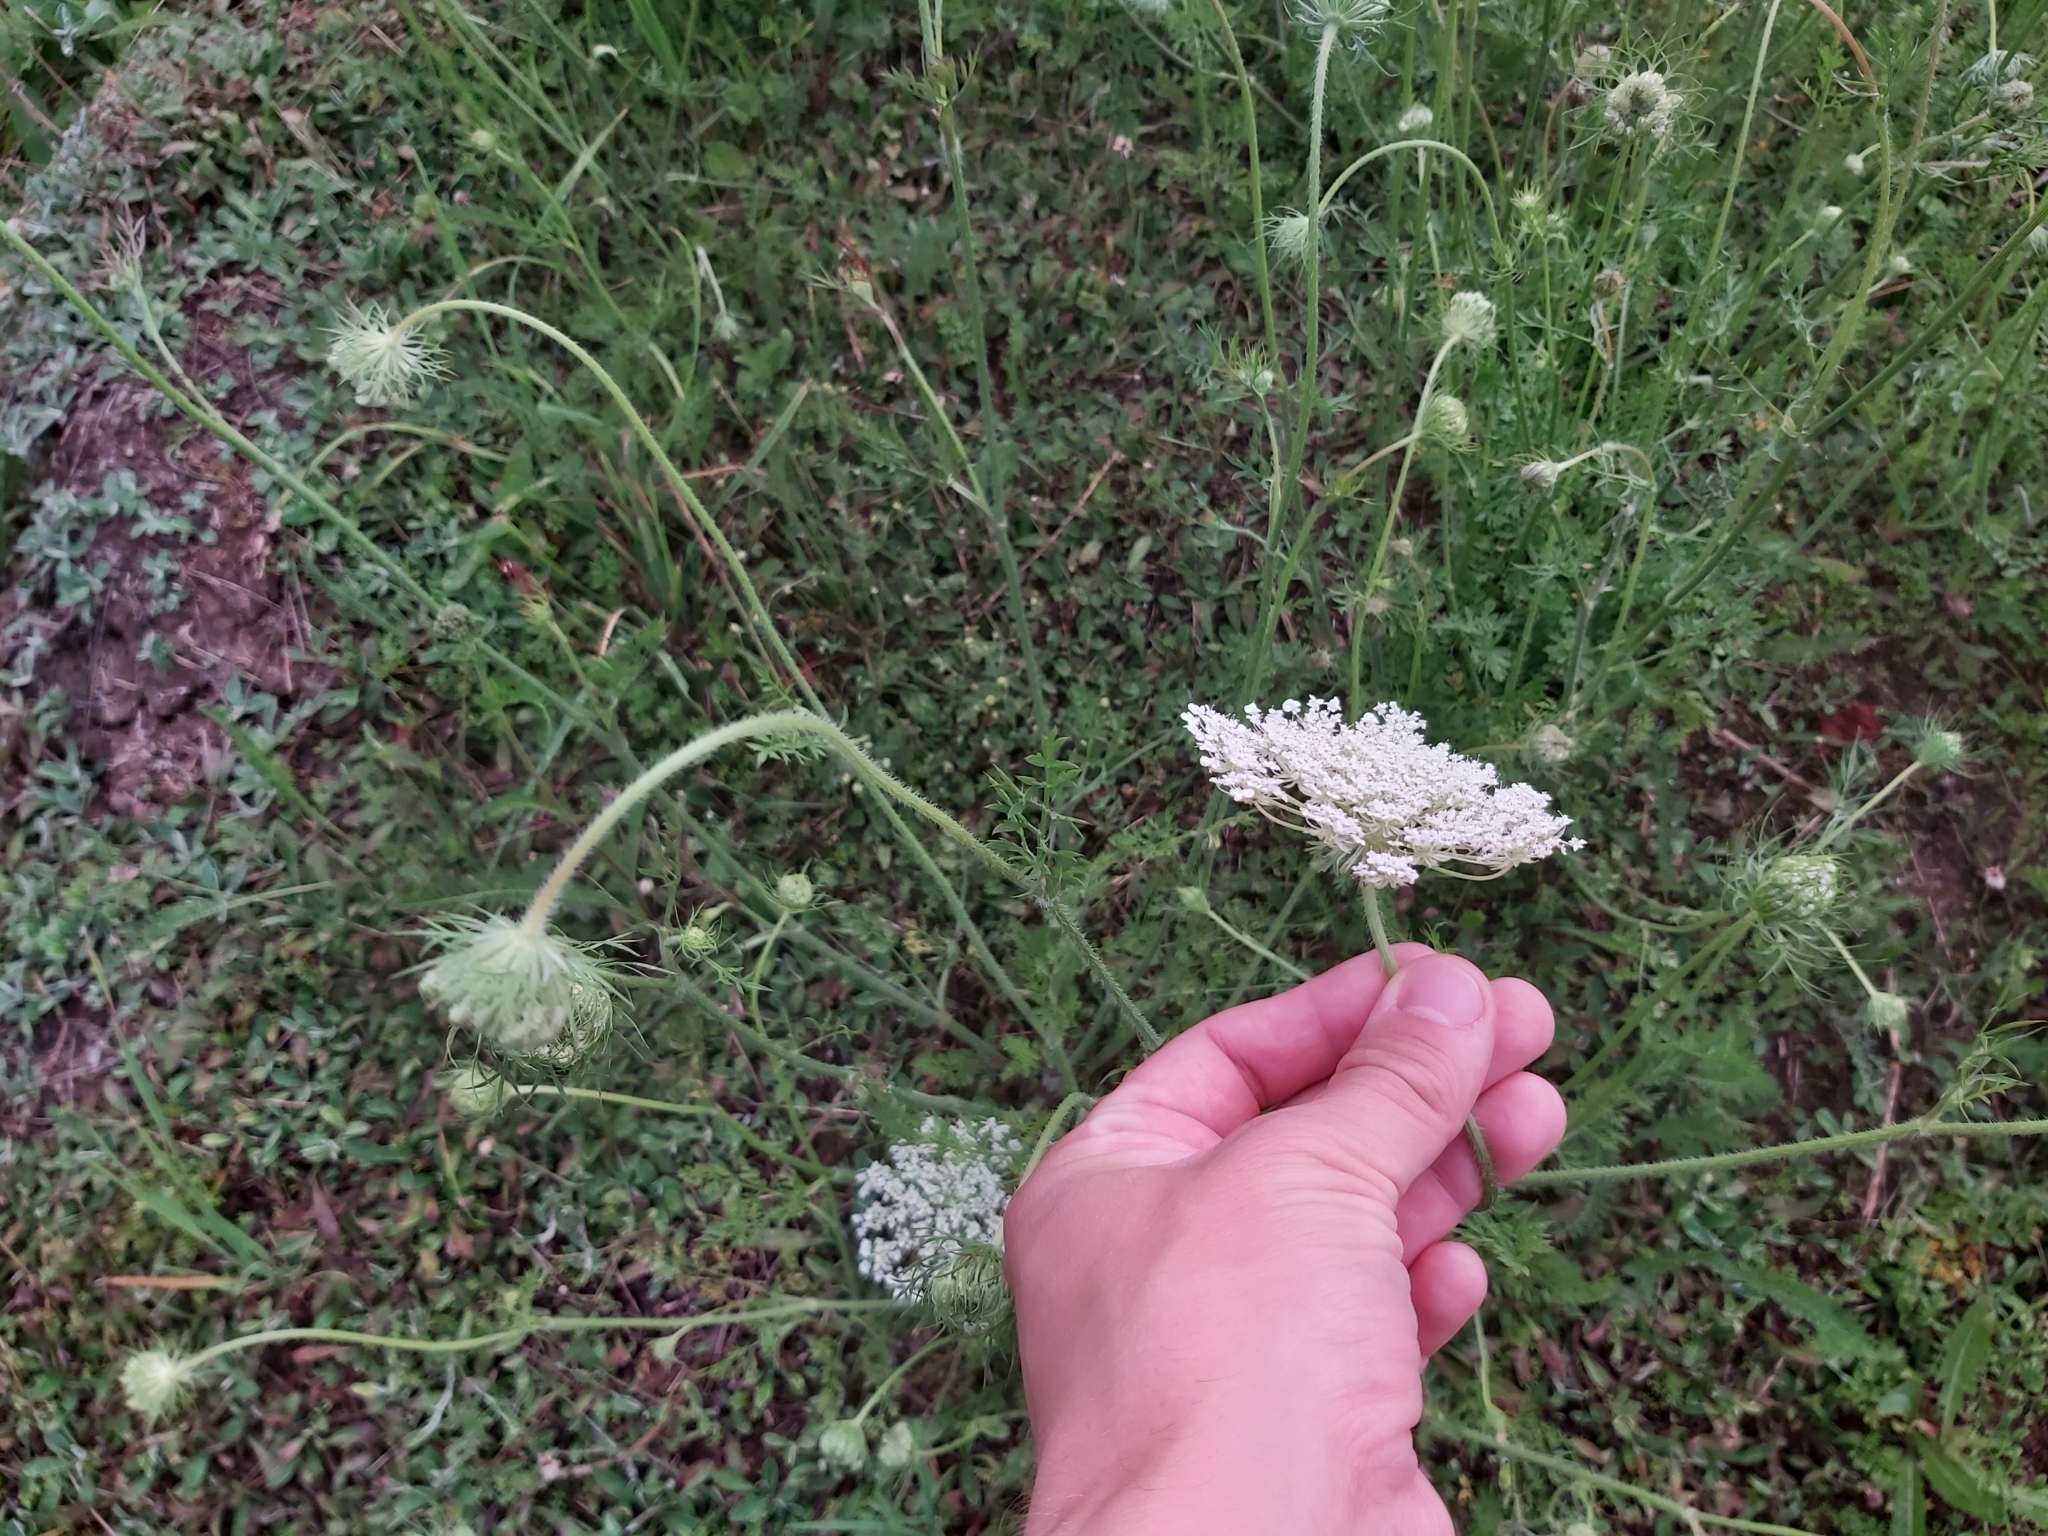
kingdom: Plantae
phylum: Tracheophyta
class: Magnoliopsida
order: Apiales
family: Apiaceae
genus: Daucus
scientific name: Daucus carota
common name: Wild carrot
